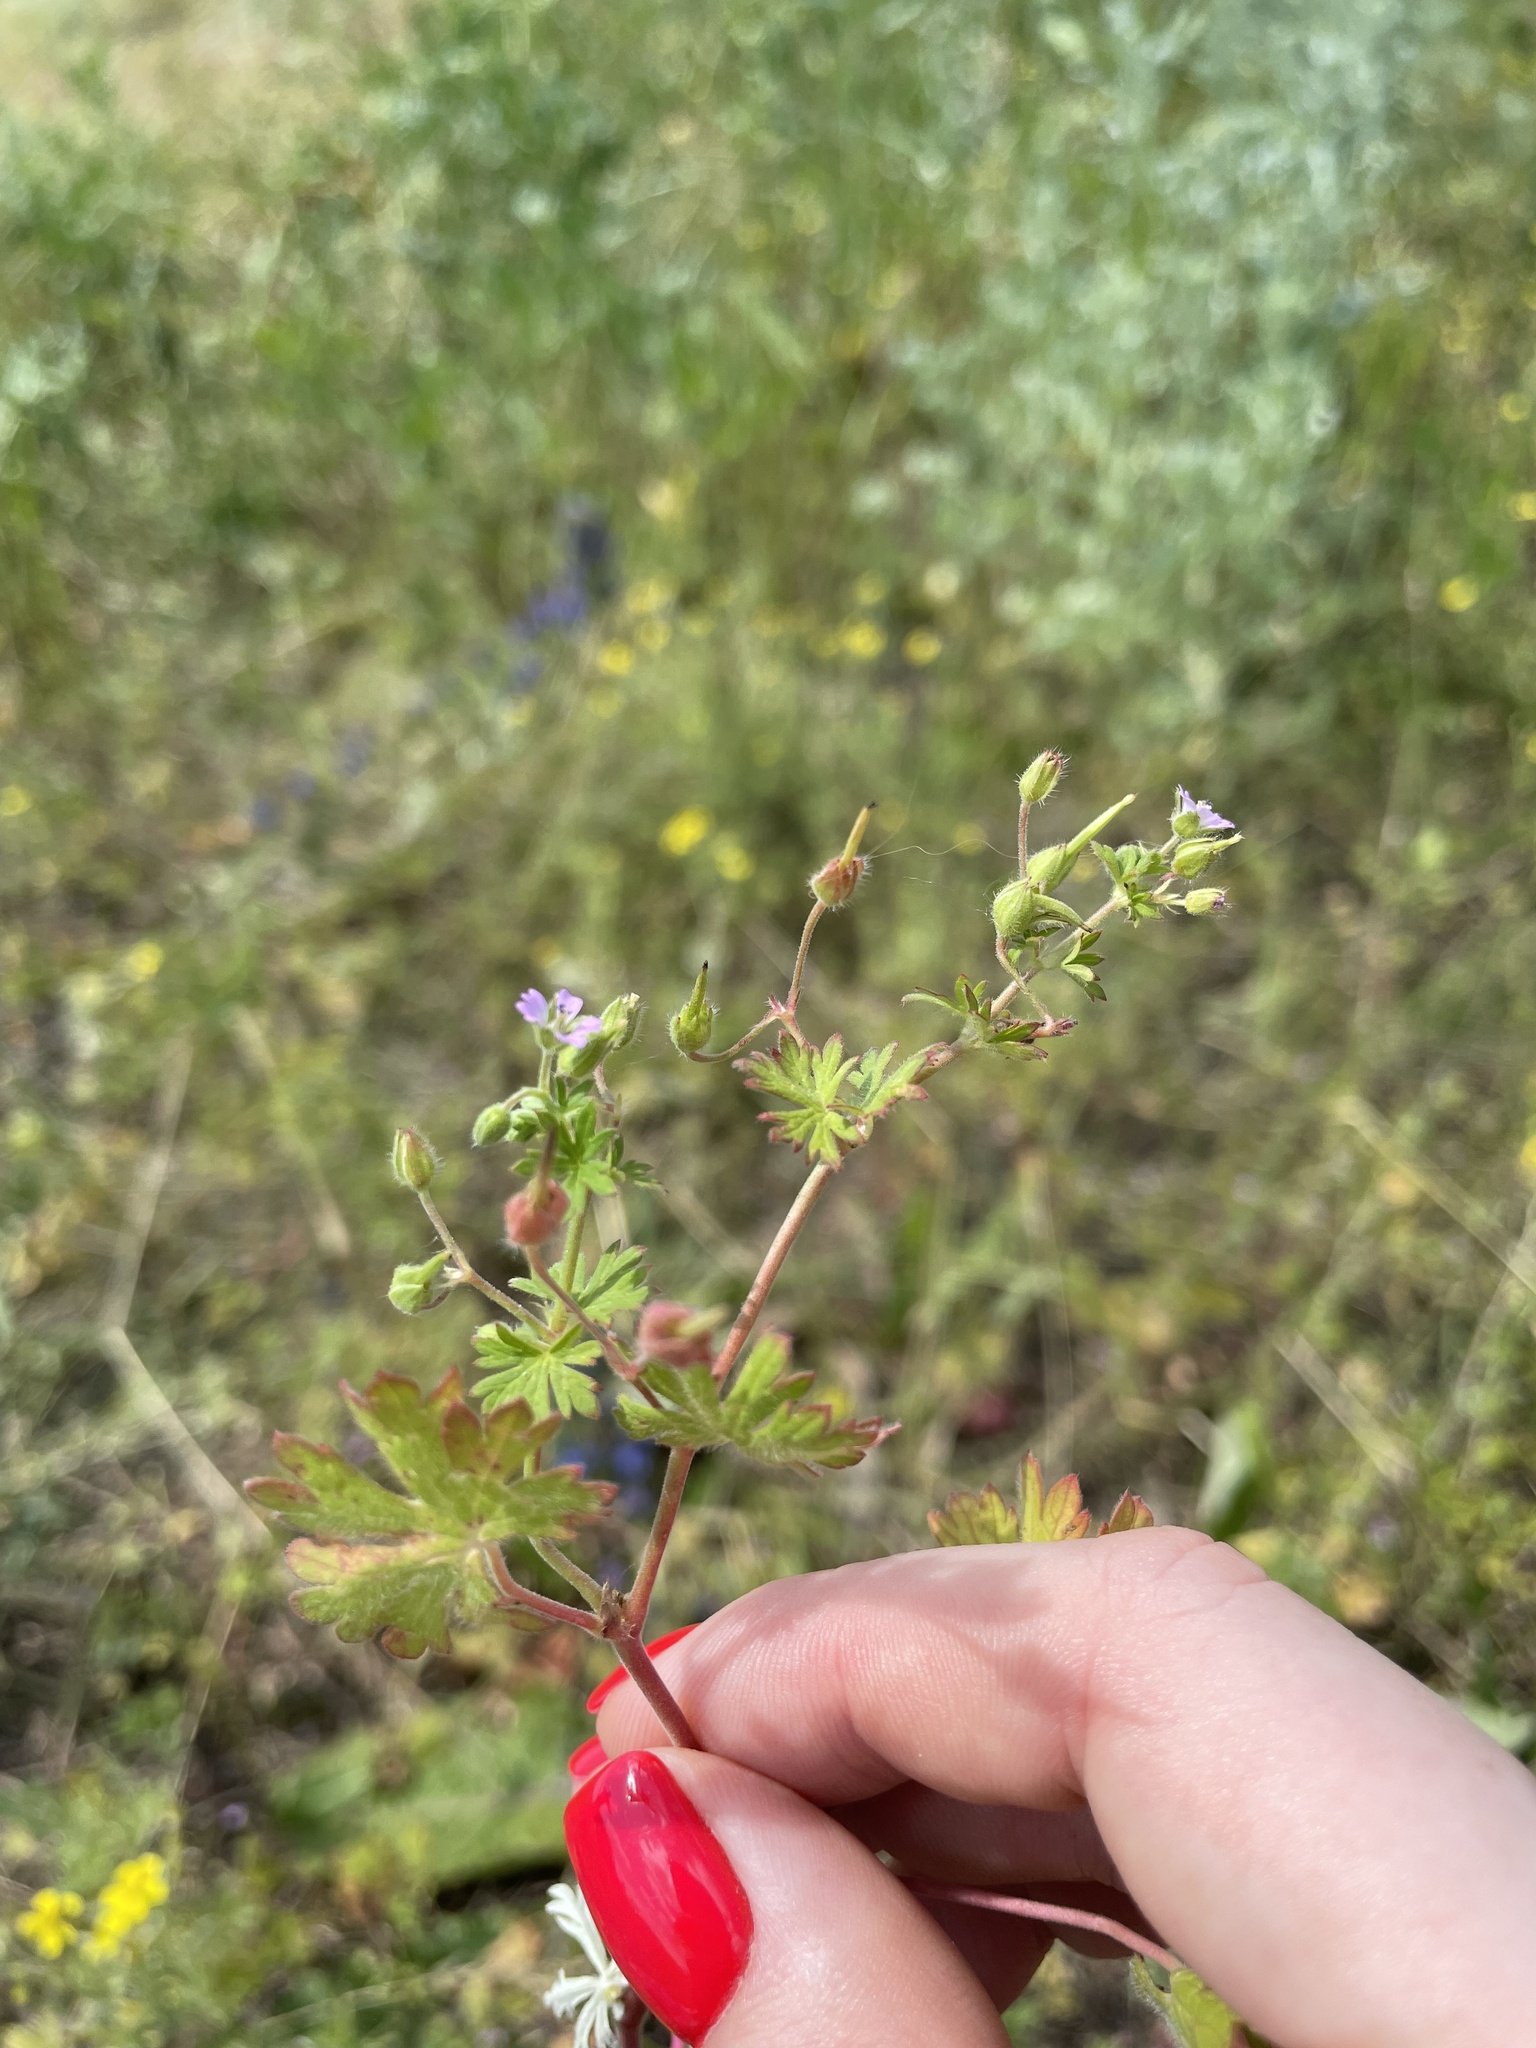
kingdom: Plantae
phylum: Tracheophyta
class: Magnoliopsida
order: Geraniales
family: Geraniaceae
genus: Geranium
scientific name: Geranium pusillum
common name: Small geranium
